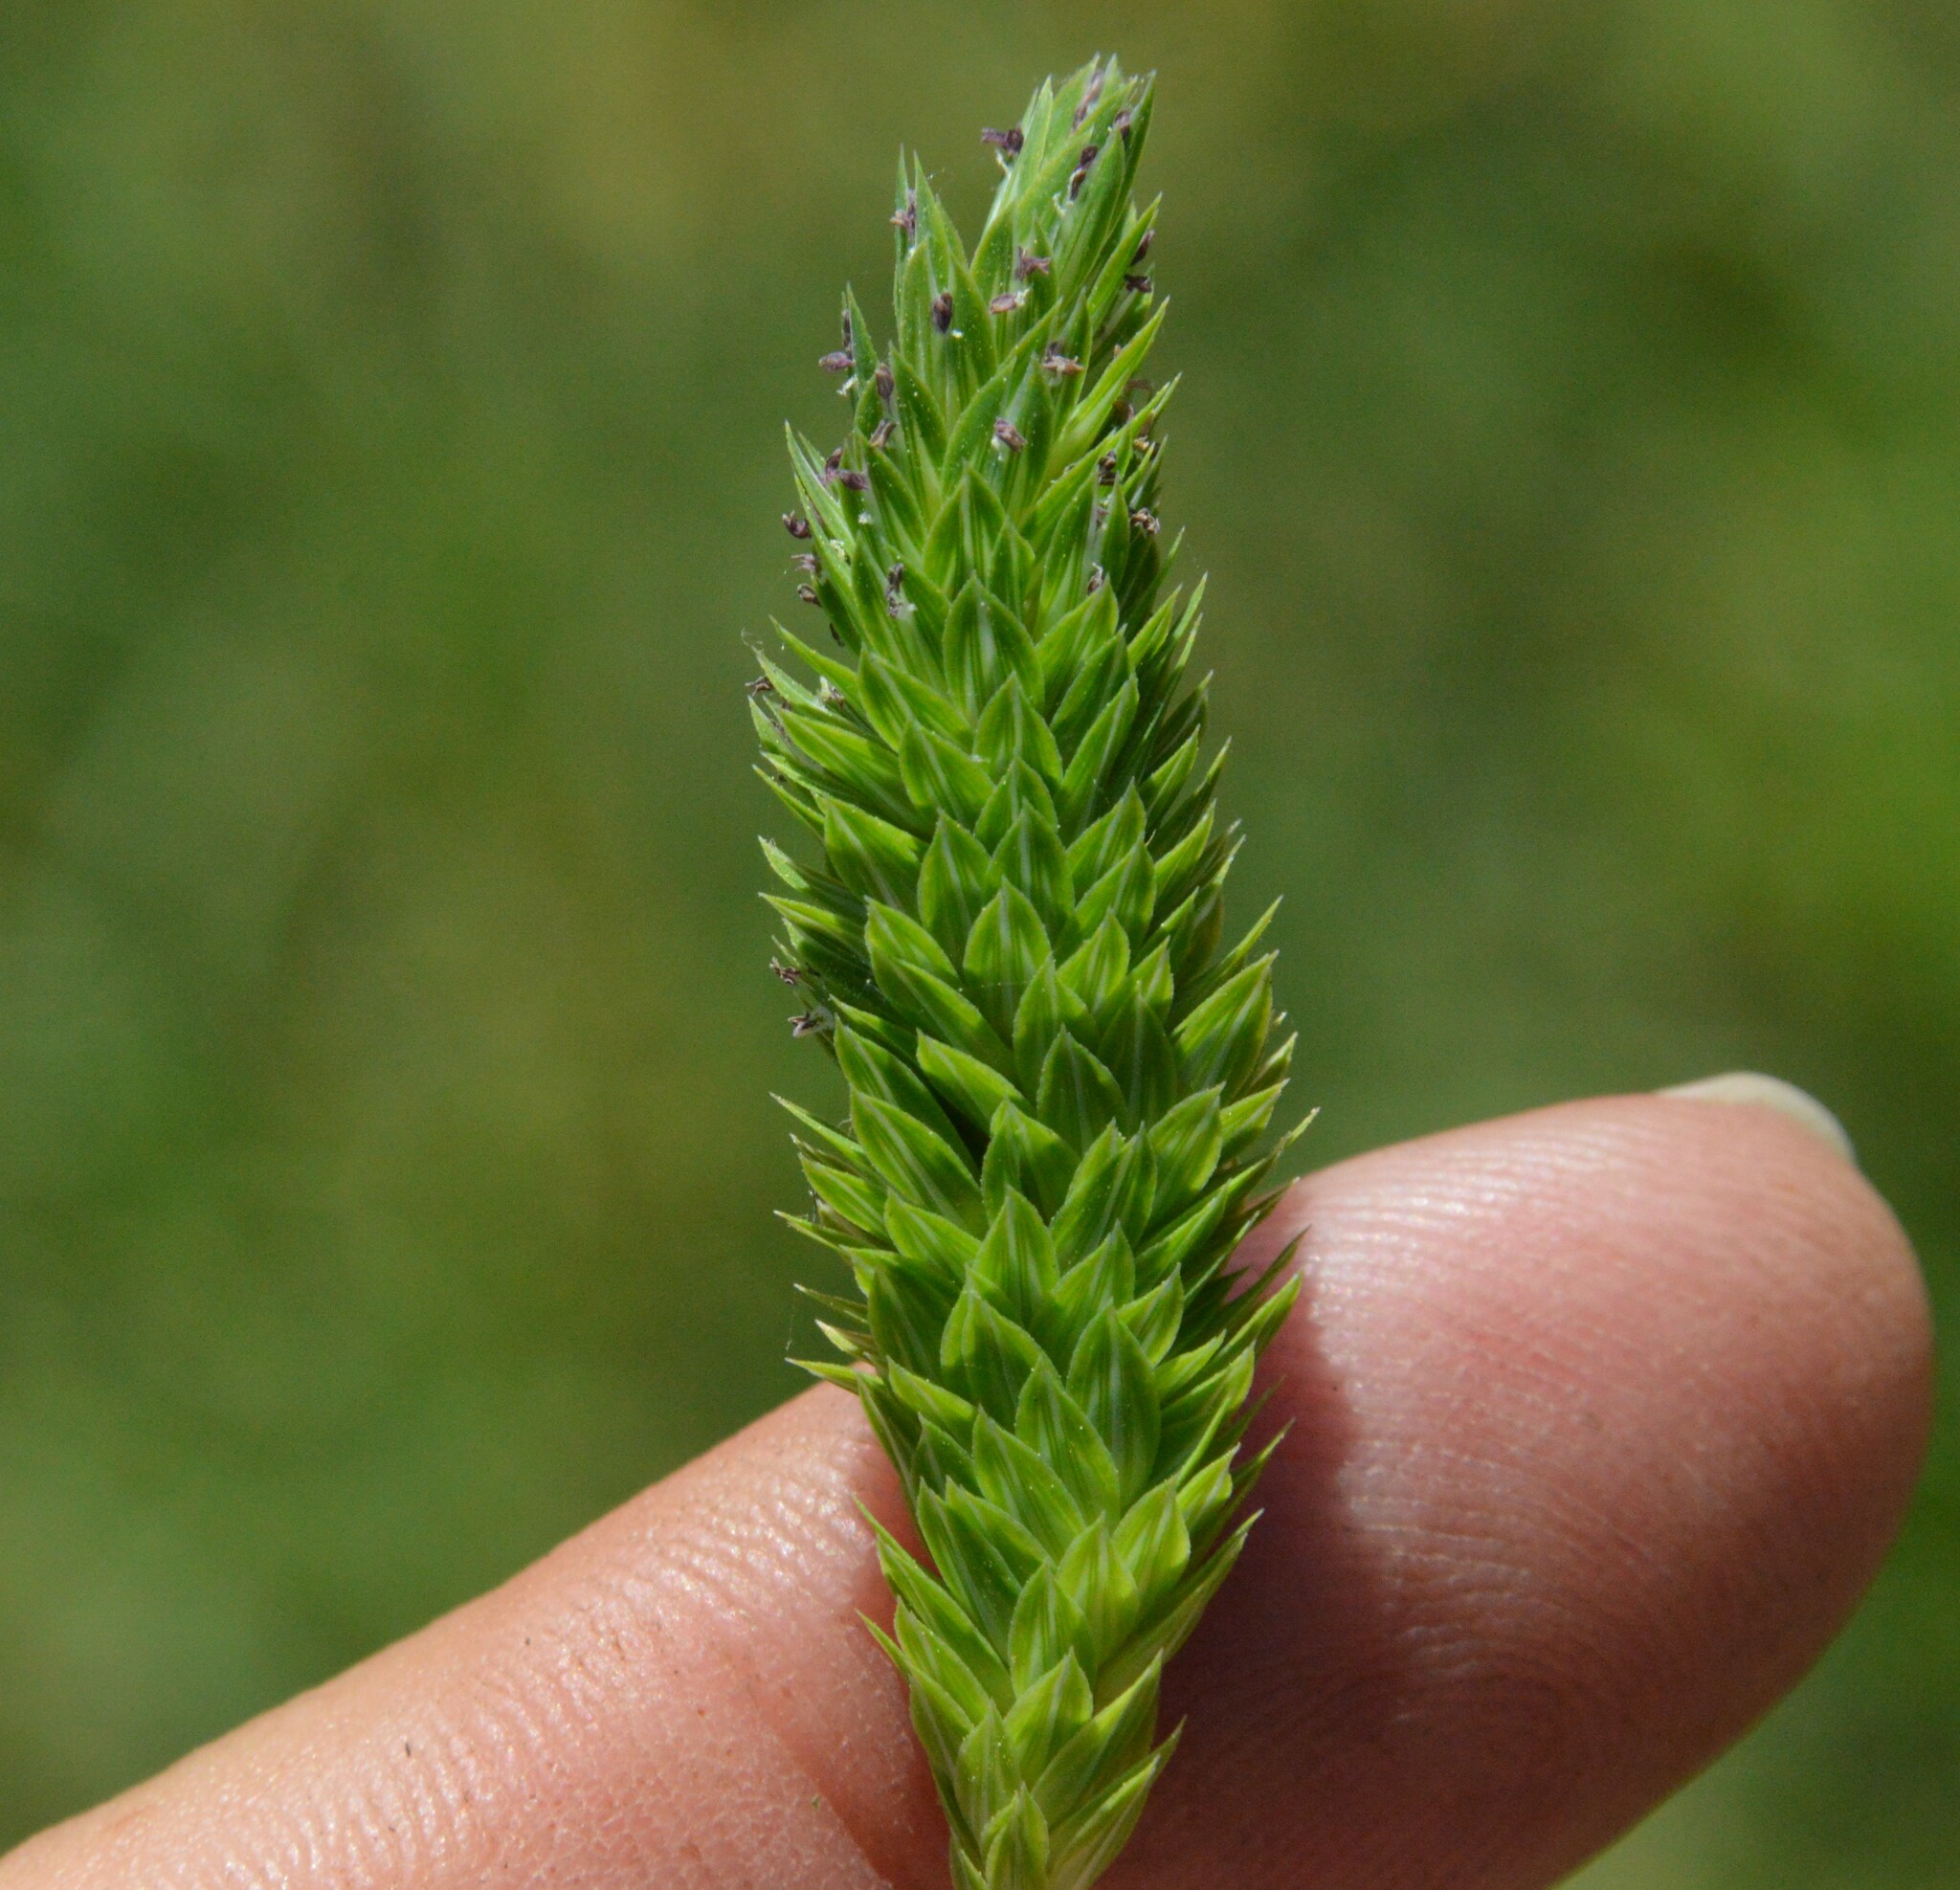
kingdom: Plantae
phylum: Tracheophyta
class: Liliopsida
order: Poales
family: Poaceae
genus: Phalaris
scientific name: Phalaris caroliniana
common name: May grass
